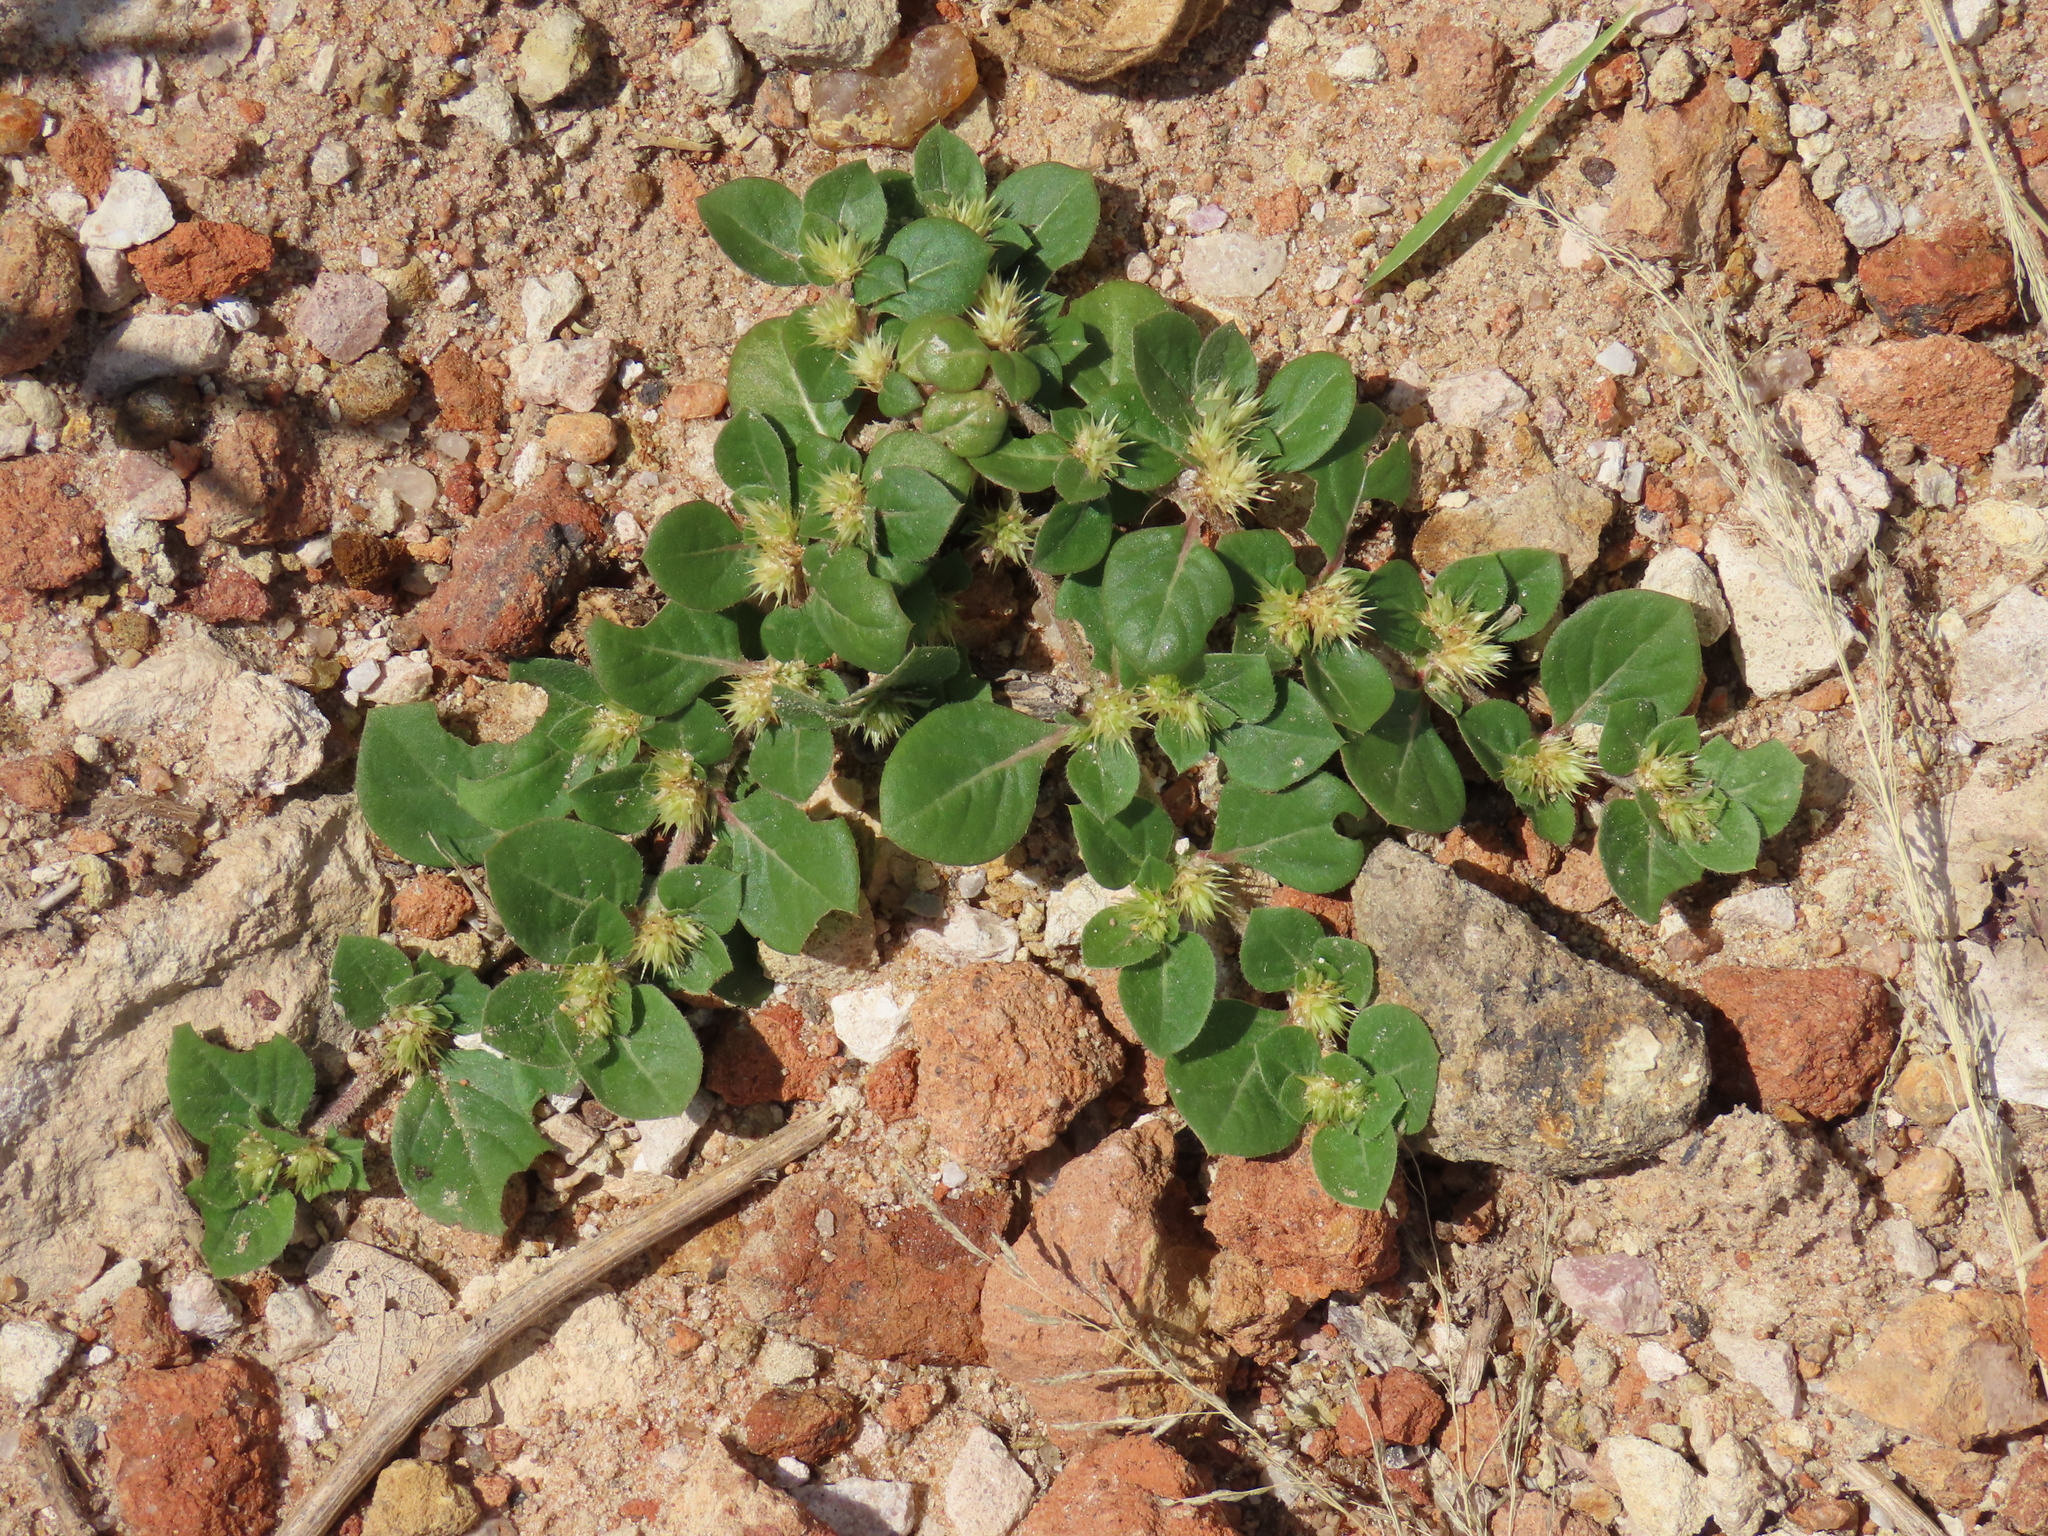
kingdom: Plantae
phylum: Tracheophyta
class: Magnoliopsida
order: Caryophyllales
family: Amaranthaceae
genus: Alternanthera
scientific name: Alternanthera pungens
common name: Khakiweed
